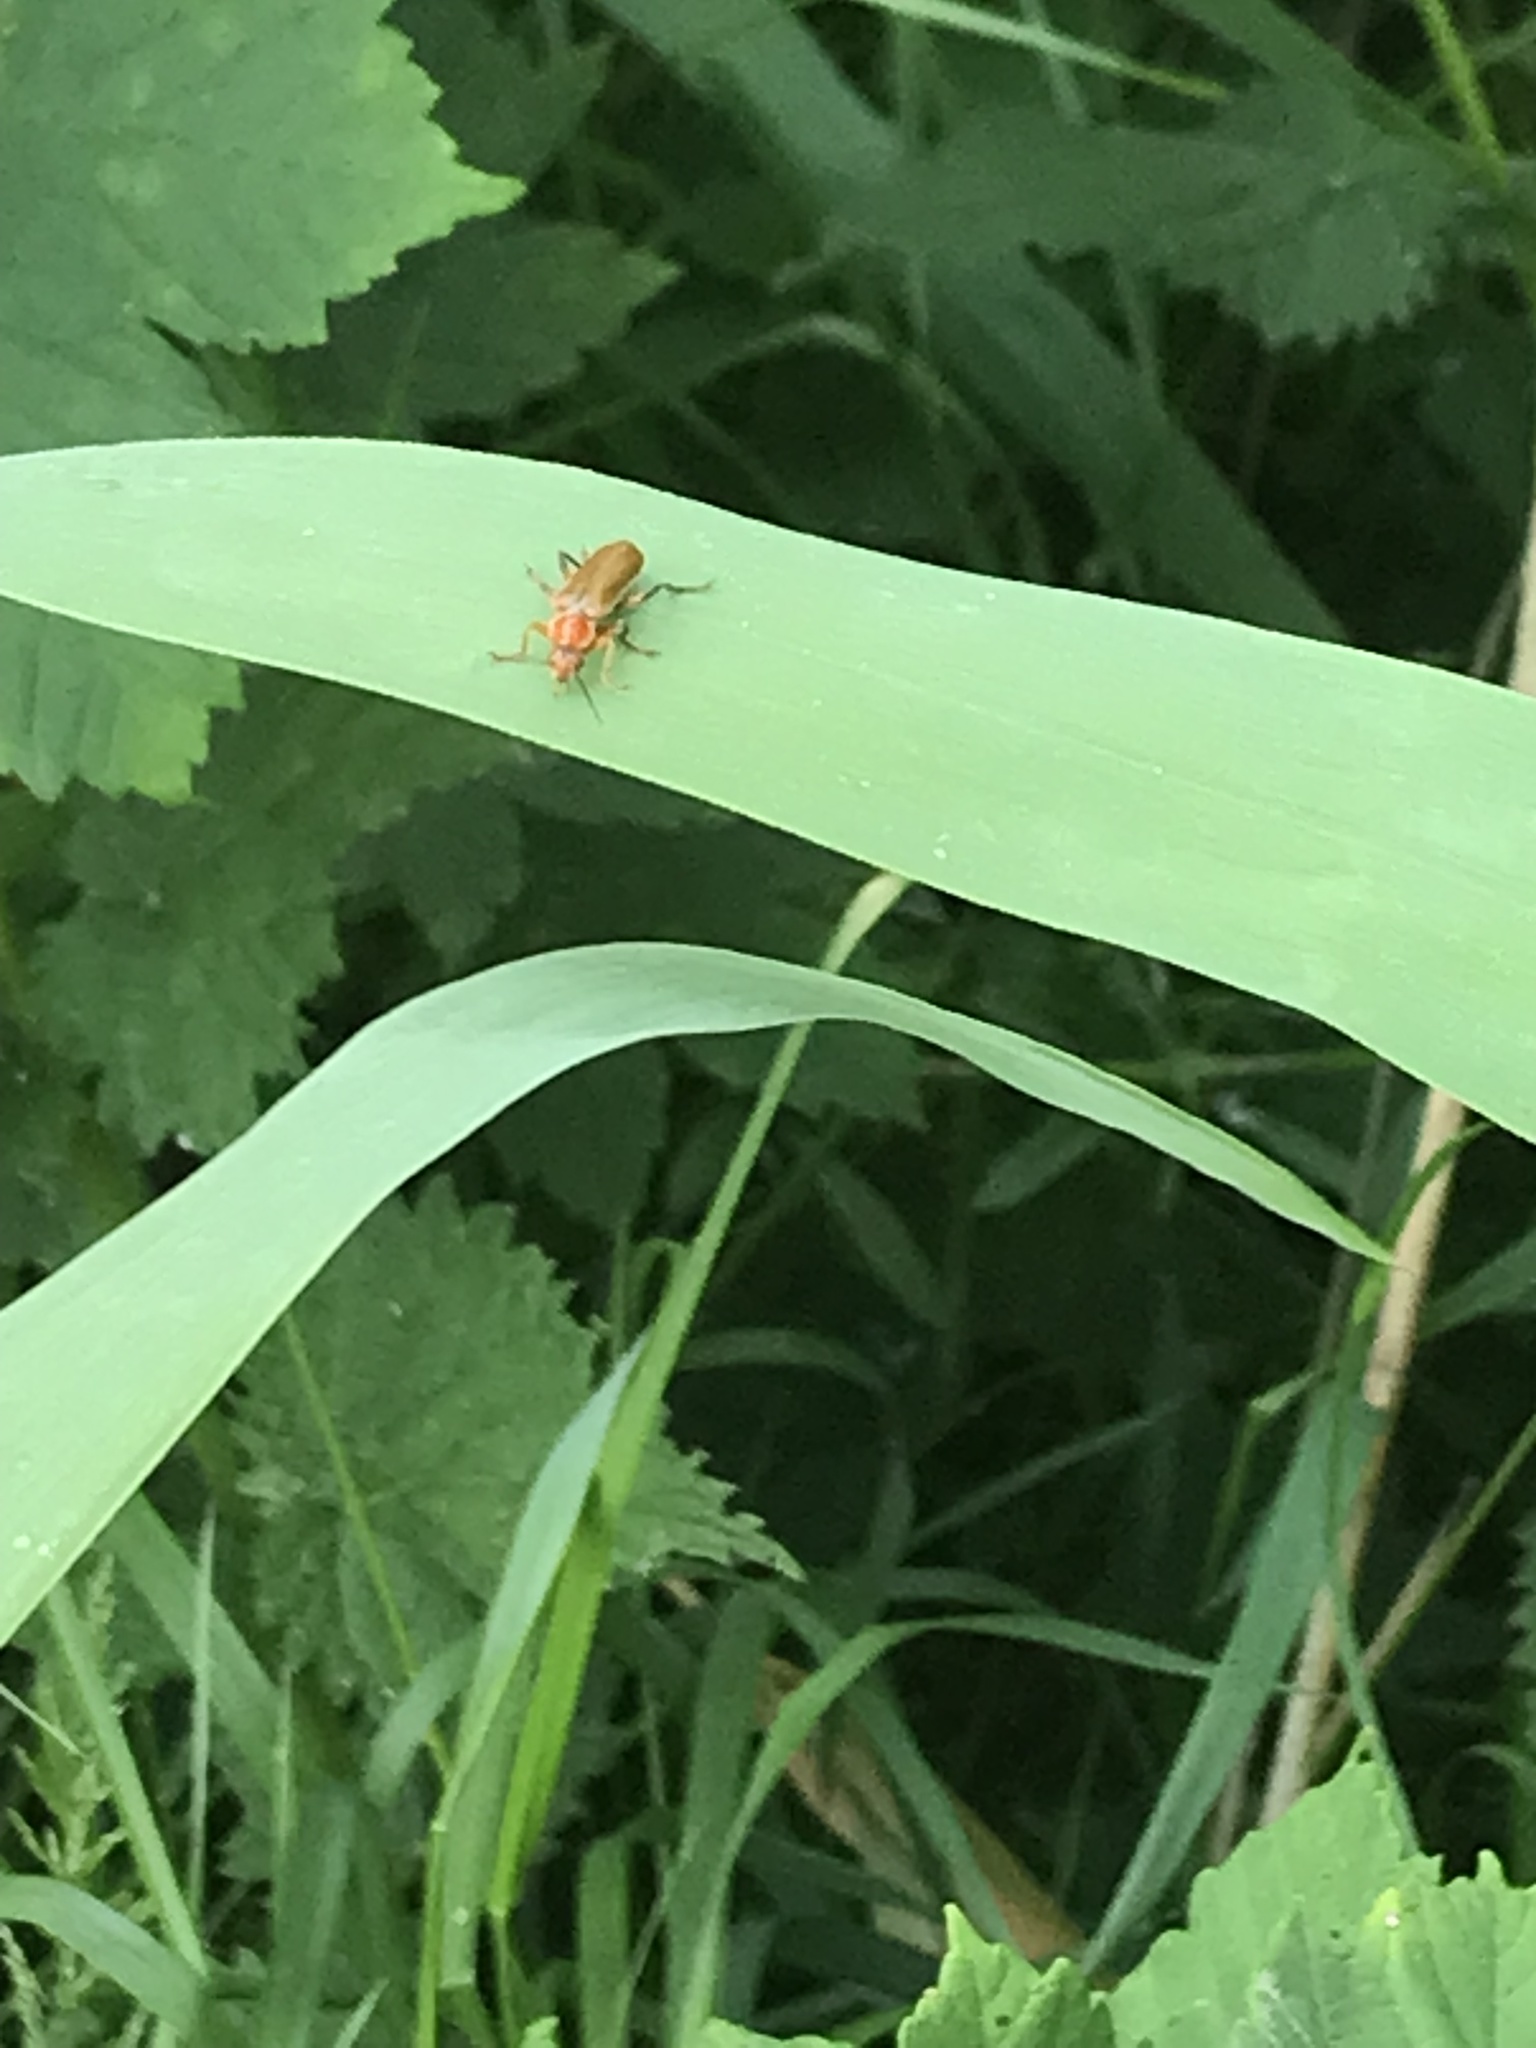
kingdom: Animalia
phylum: Arthropoda
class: Insecta
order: Coleoptera
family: Cantharidae
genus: Cantharis
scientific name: Cantharis livida
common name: Livid soldier beetle
